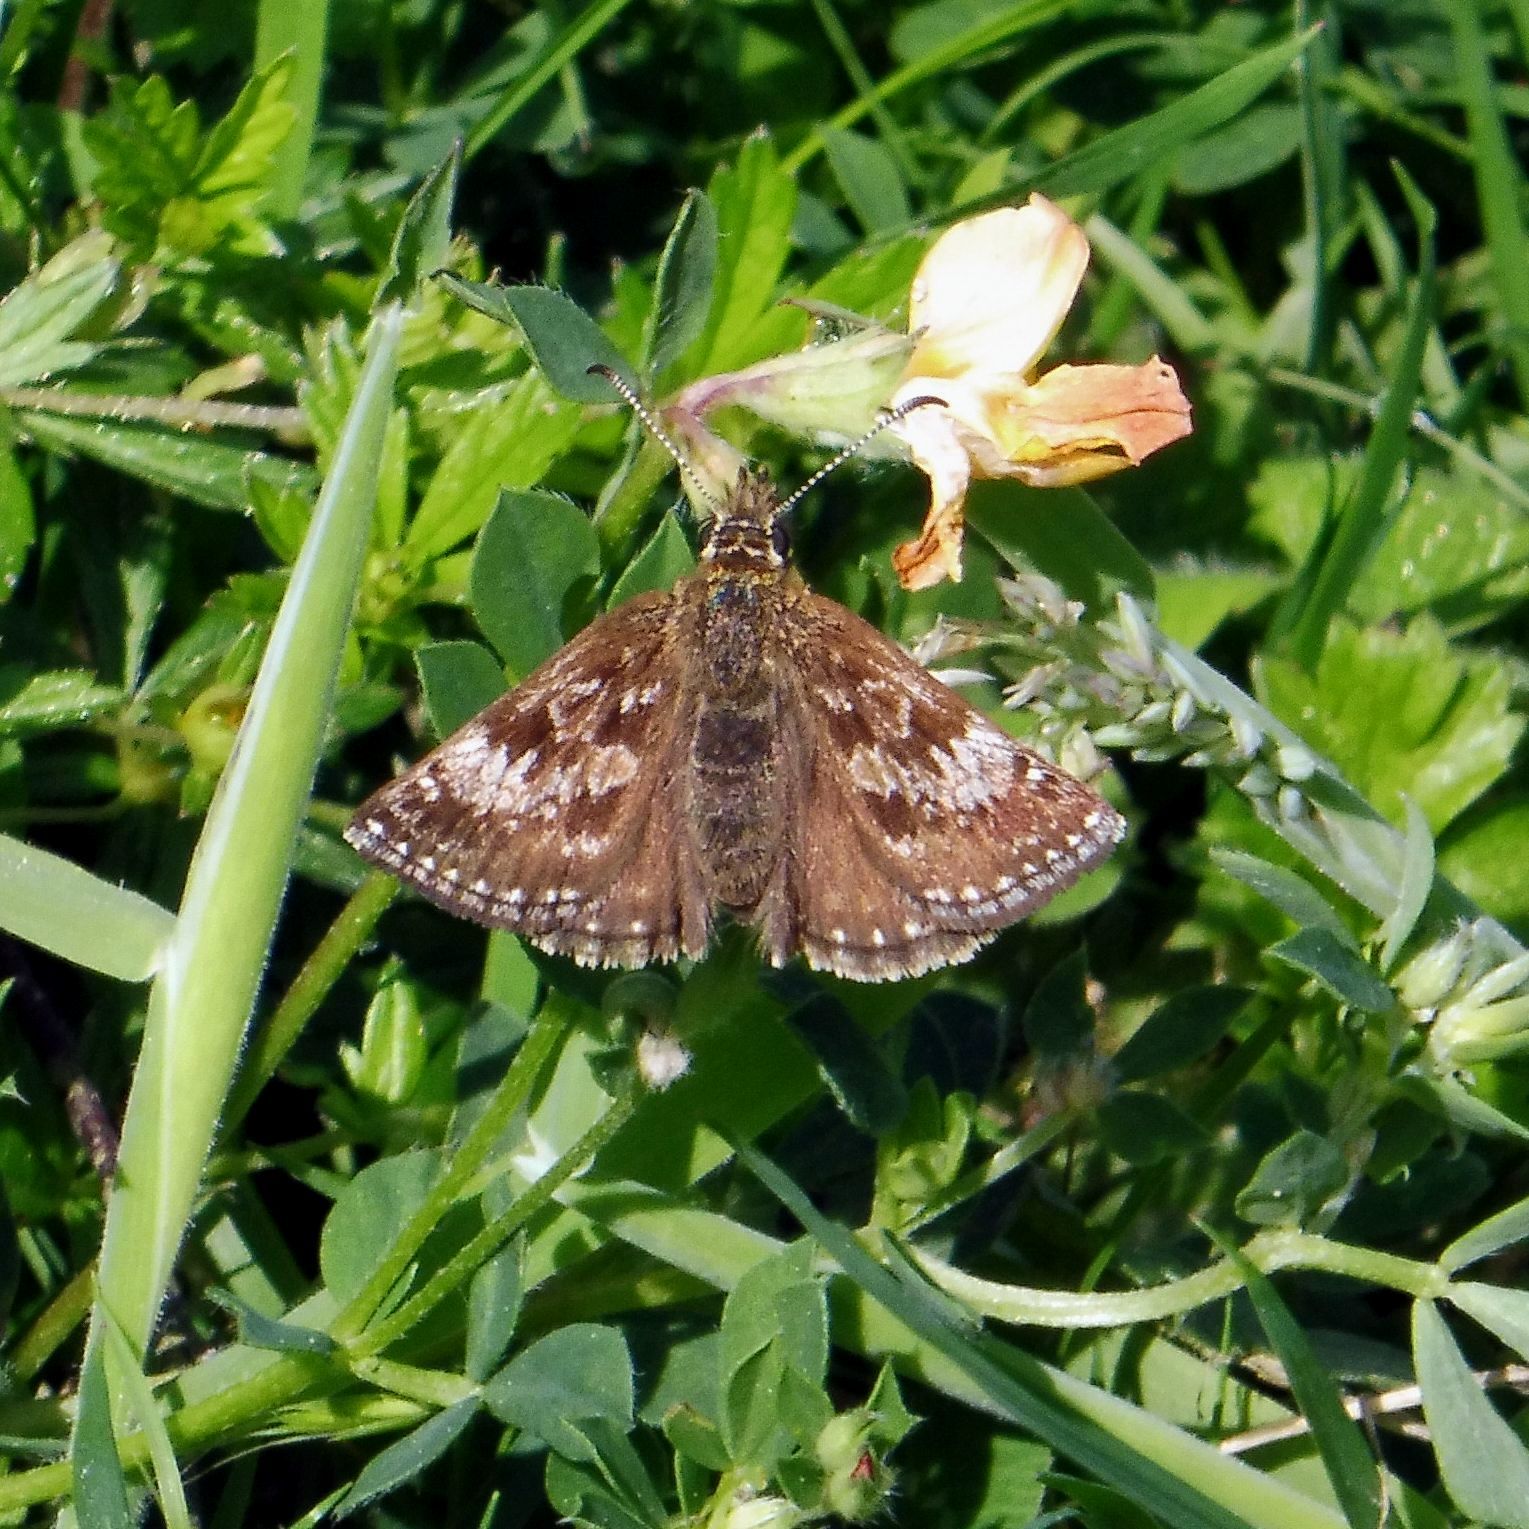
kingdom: Animalia
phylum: Arthropoda
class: Insecta
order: Lepidoptera
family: Hesperiidae
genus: Erynnis
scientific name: Erynnis tages
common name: Dingy skipper
